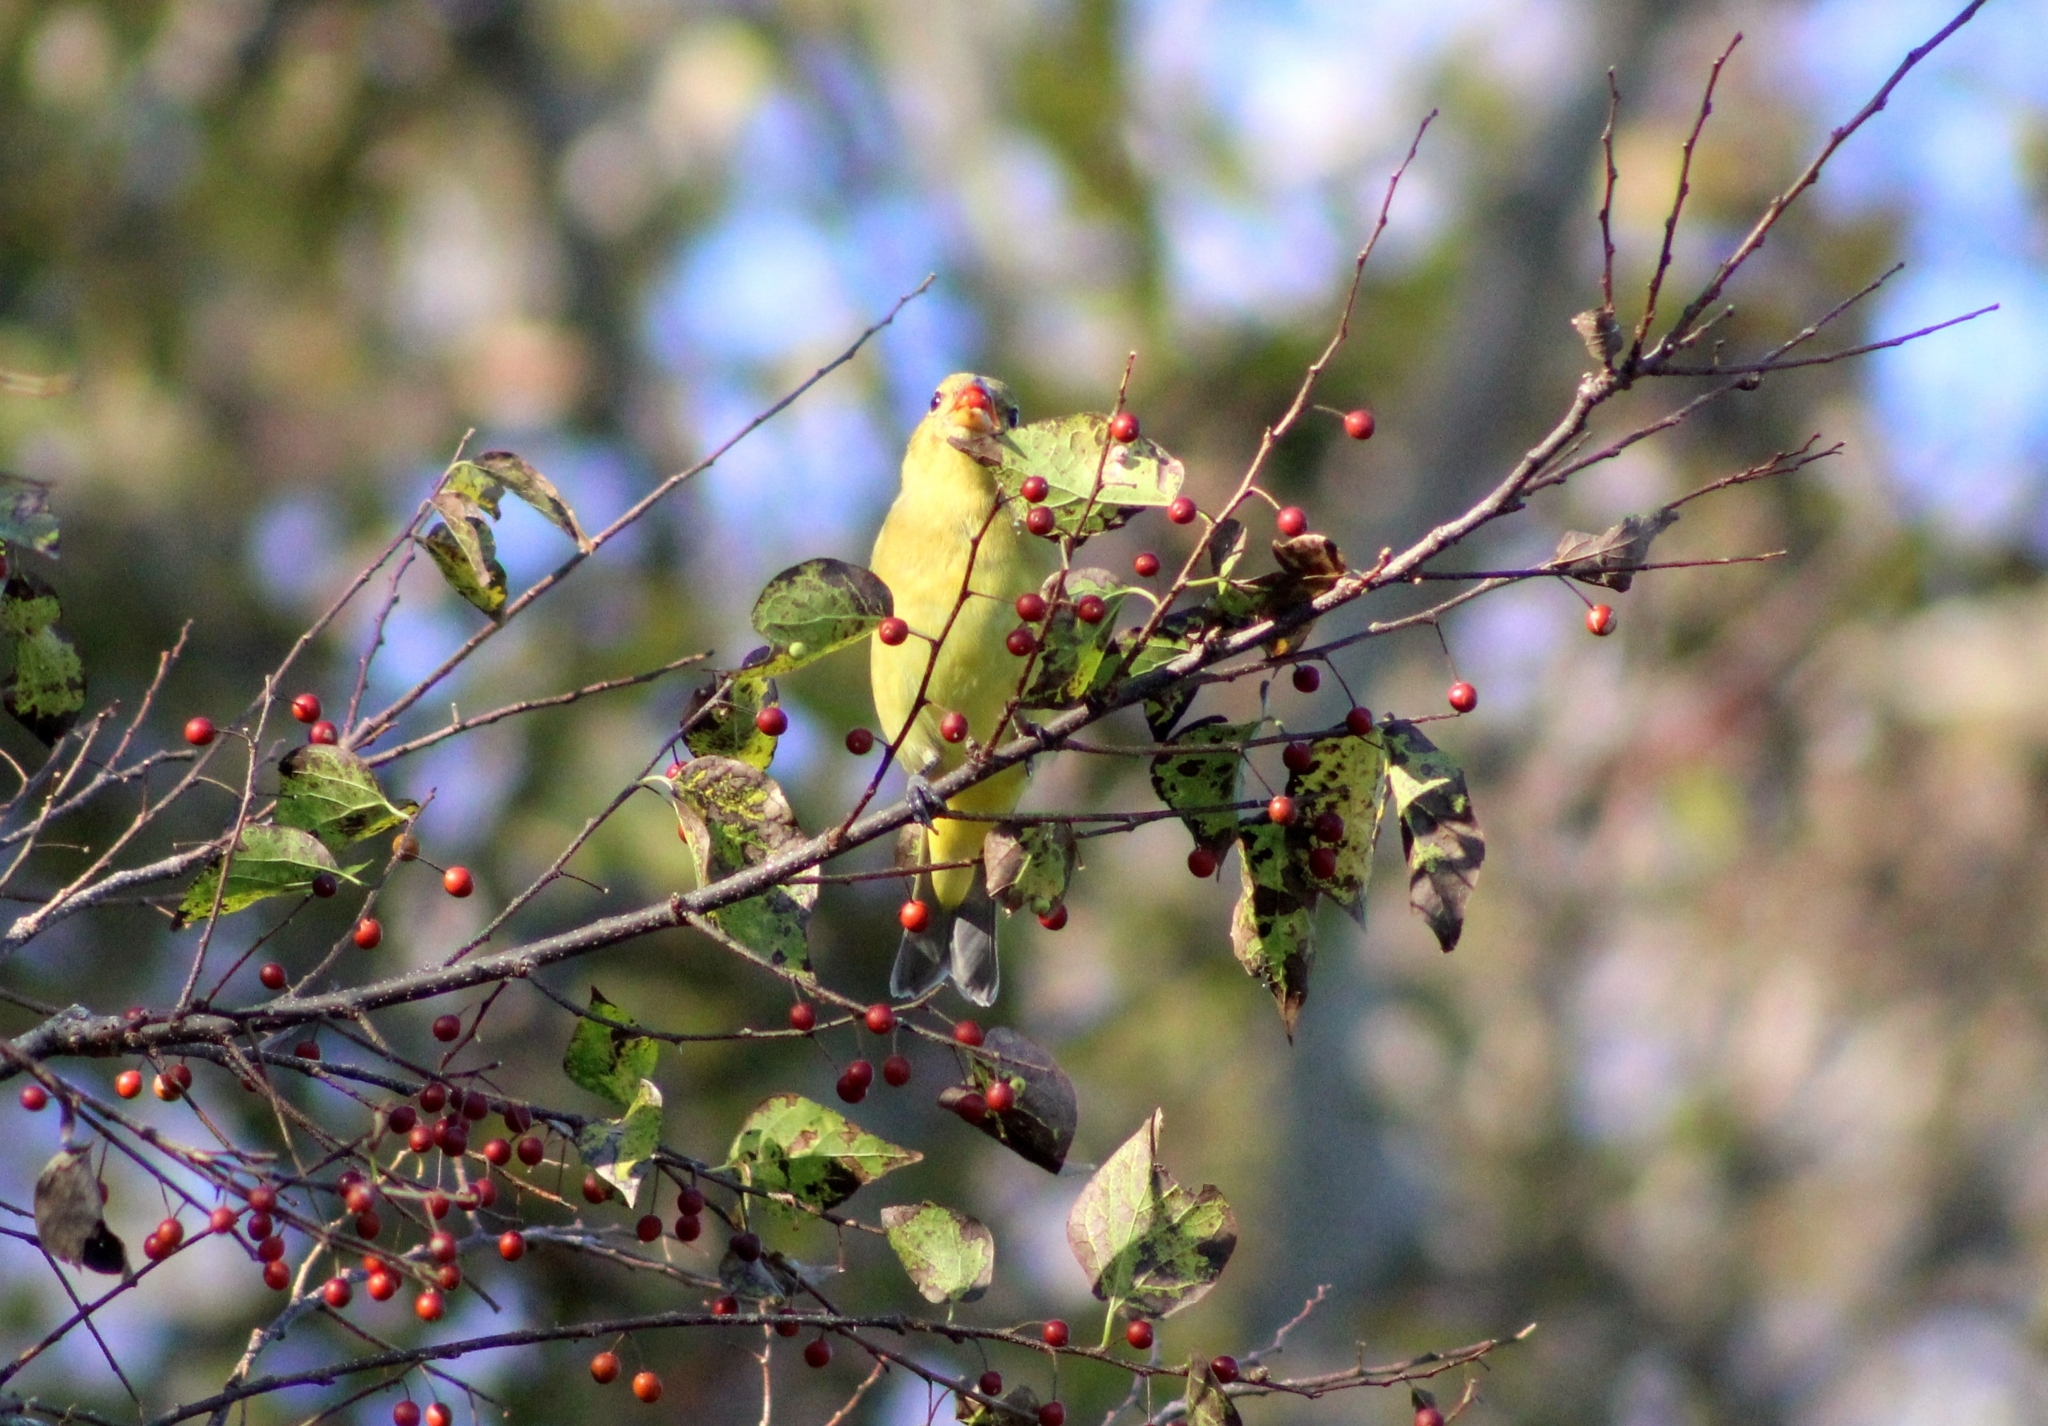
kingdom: Animalia
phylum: Chordata
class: Aves
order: Passeriformes
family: Cardinalidae
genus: Passerina
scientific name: Passerina ciris
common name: Painted bunting
